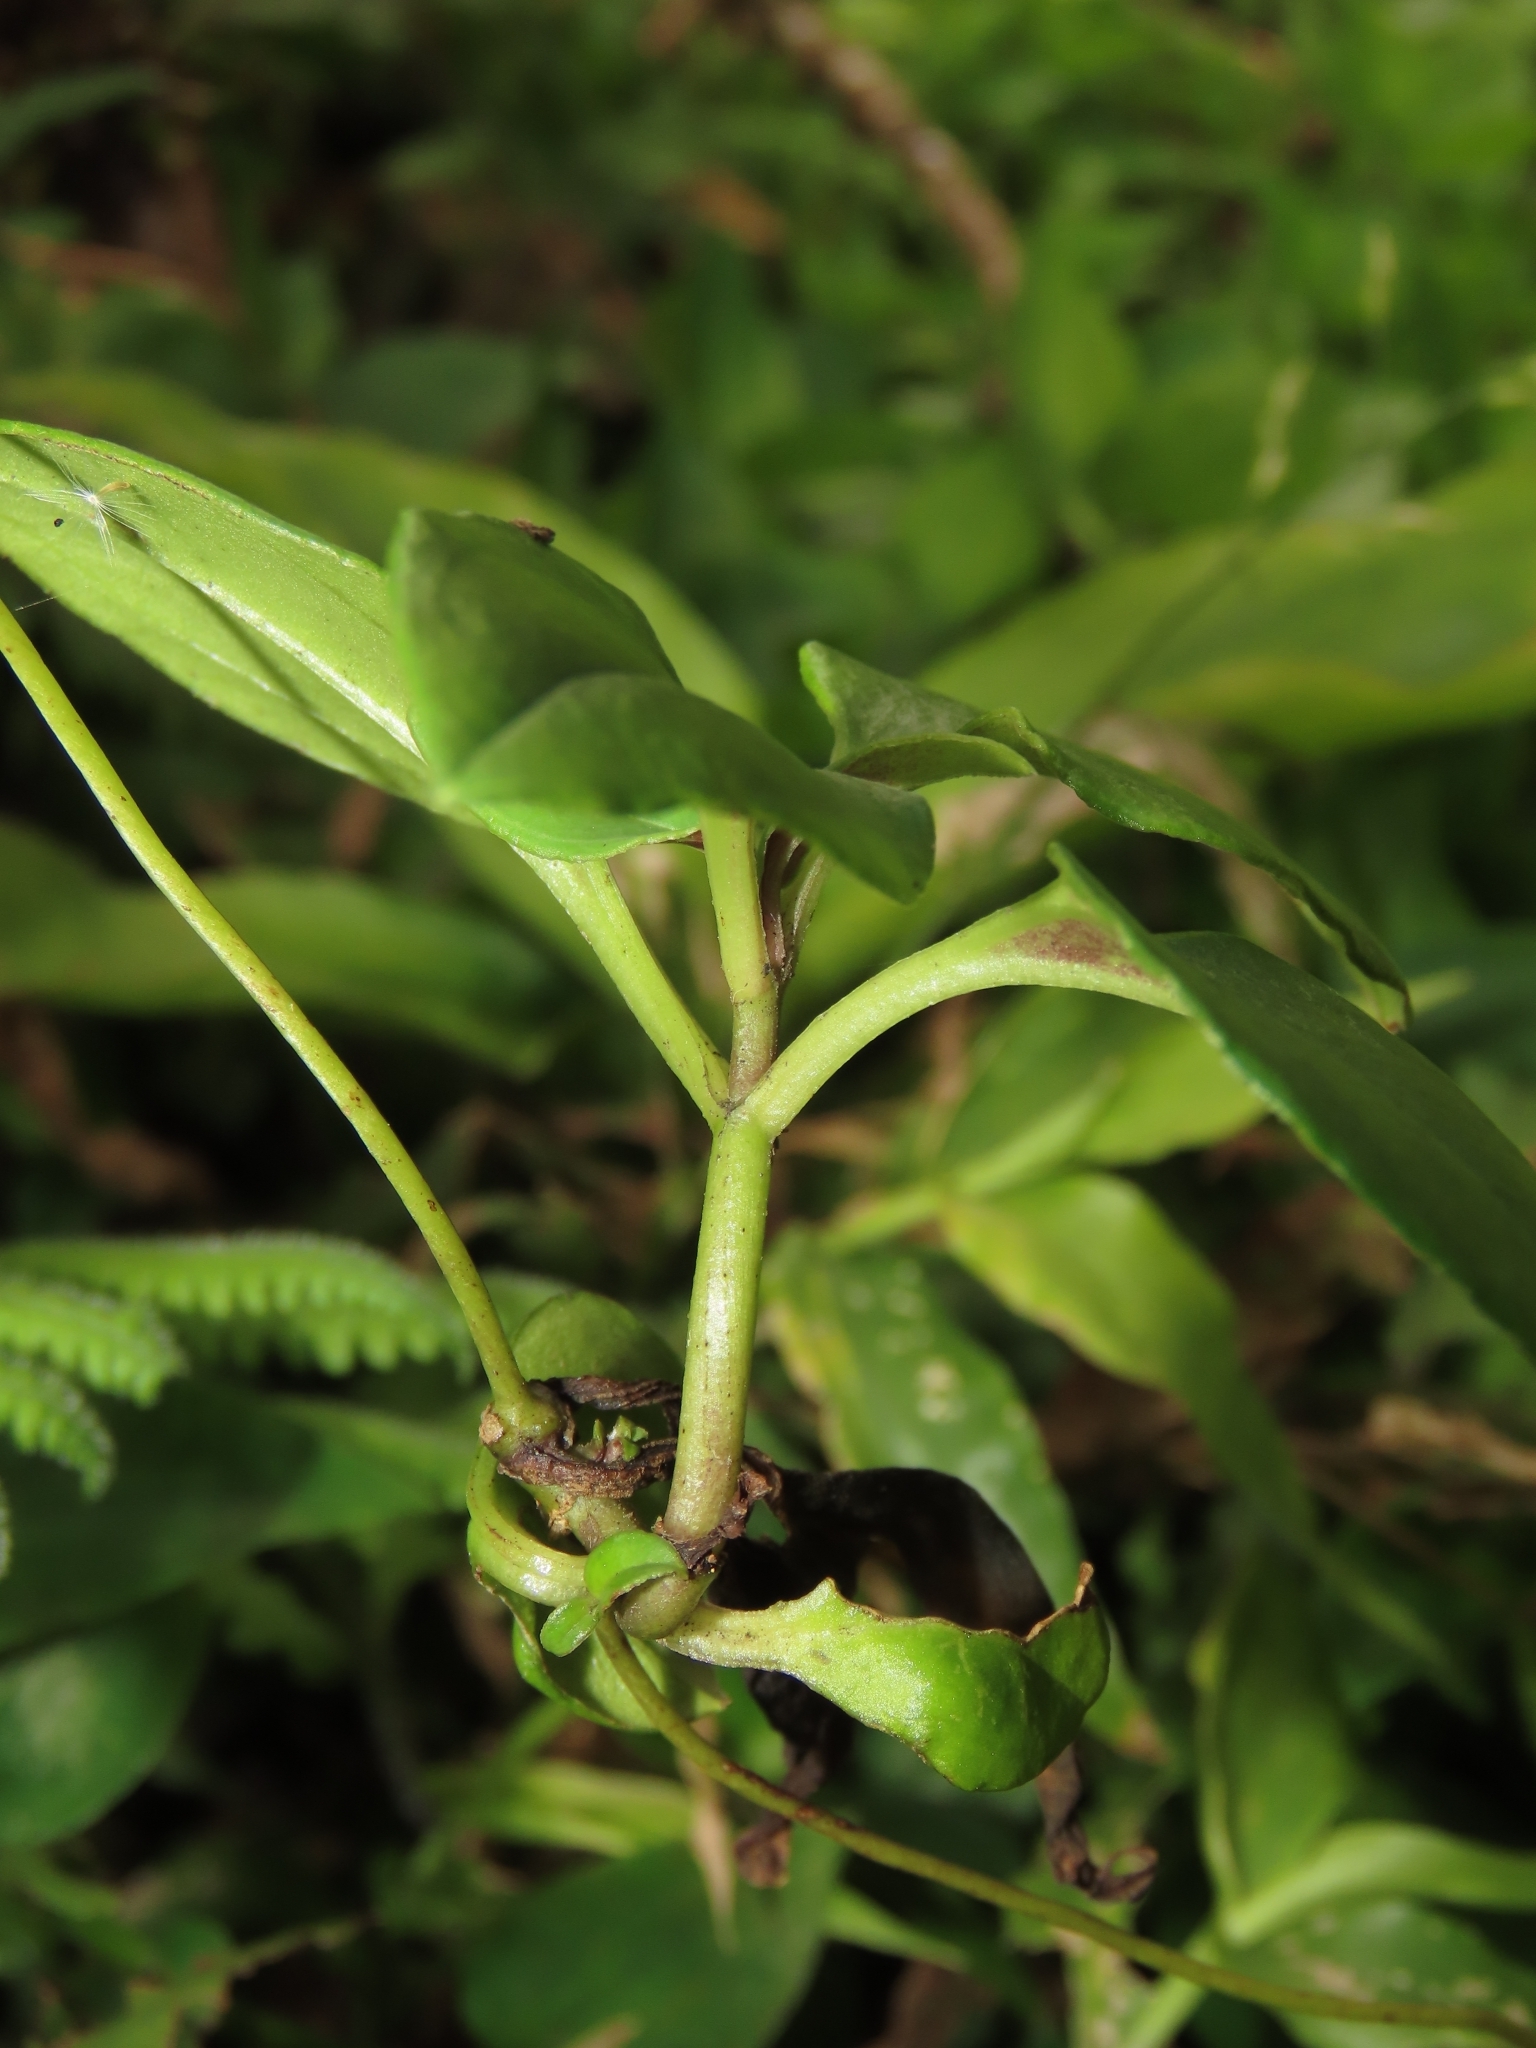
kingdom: Plantae
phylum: Tracheophyta
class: Magnoliopsida
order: Gentianales
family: Gentianaceae
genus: Tripterospermum
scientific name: Tripterospermum alutaceifolium
